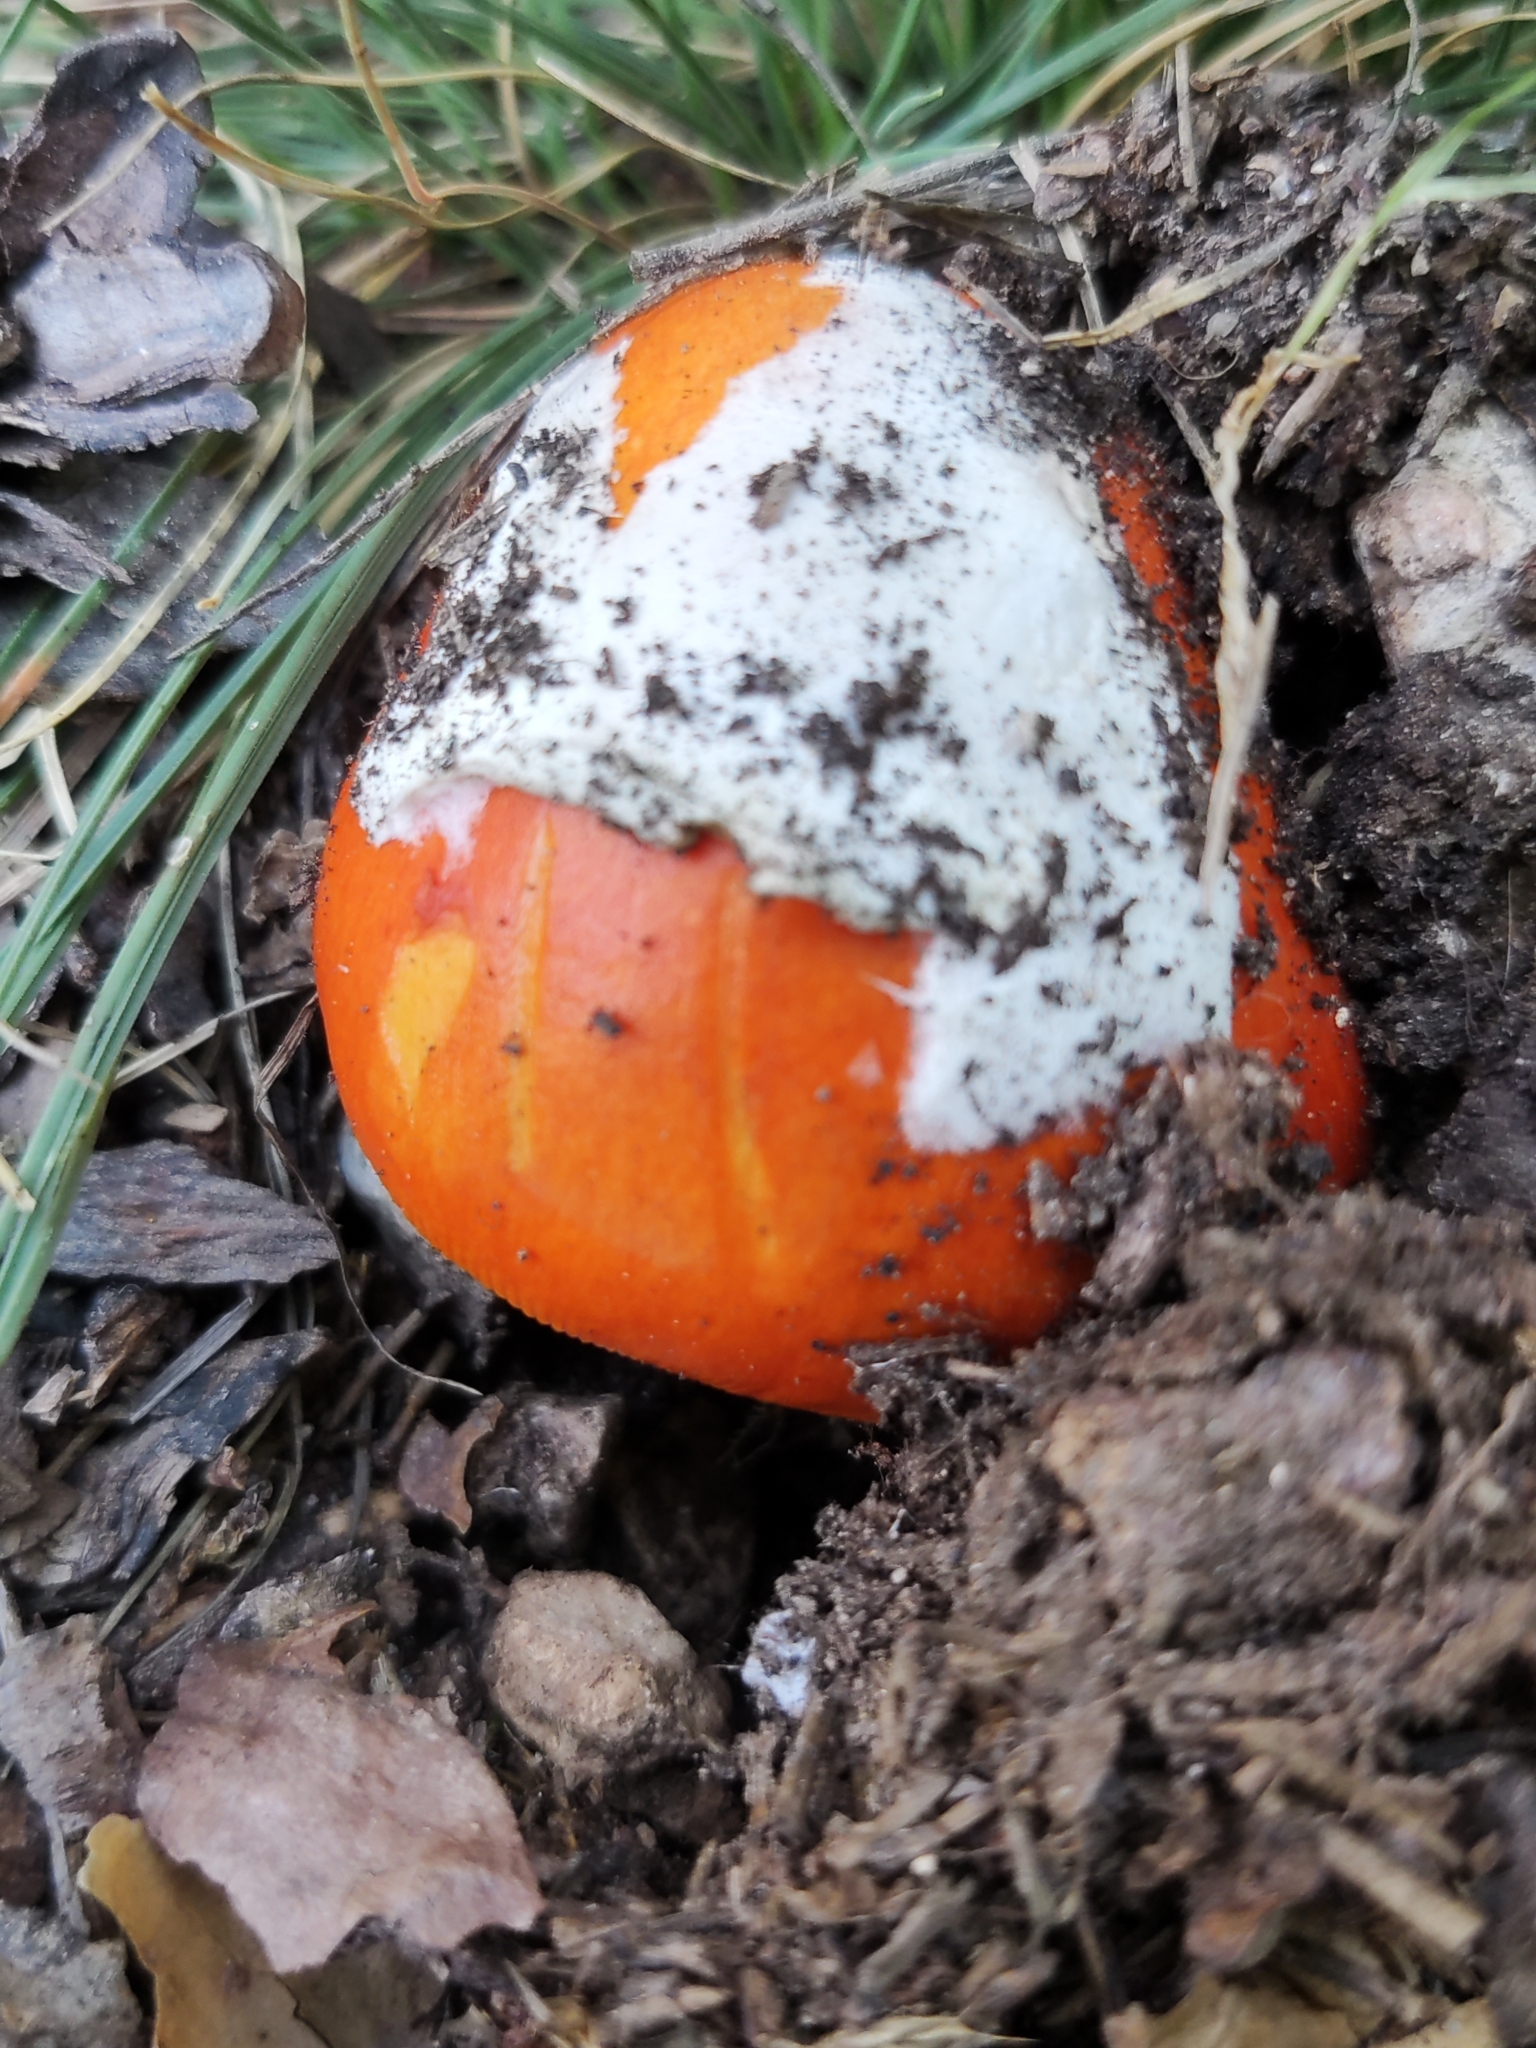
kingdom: Fungi
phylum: Basidiomycota
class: Agaricomycetes
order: Agaricales
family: Amanitaceae
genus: Amanita
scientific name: Amanita caesarea
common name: Caesar's amanita
